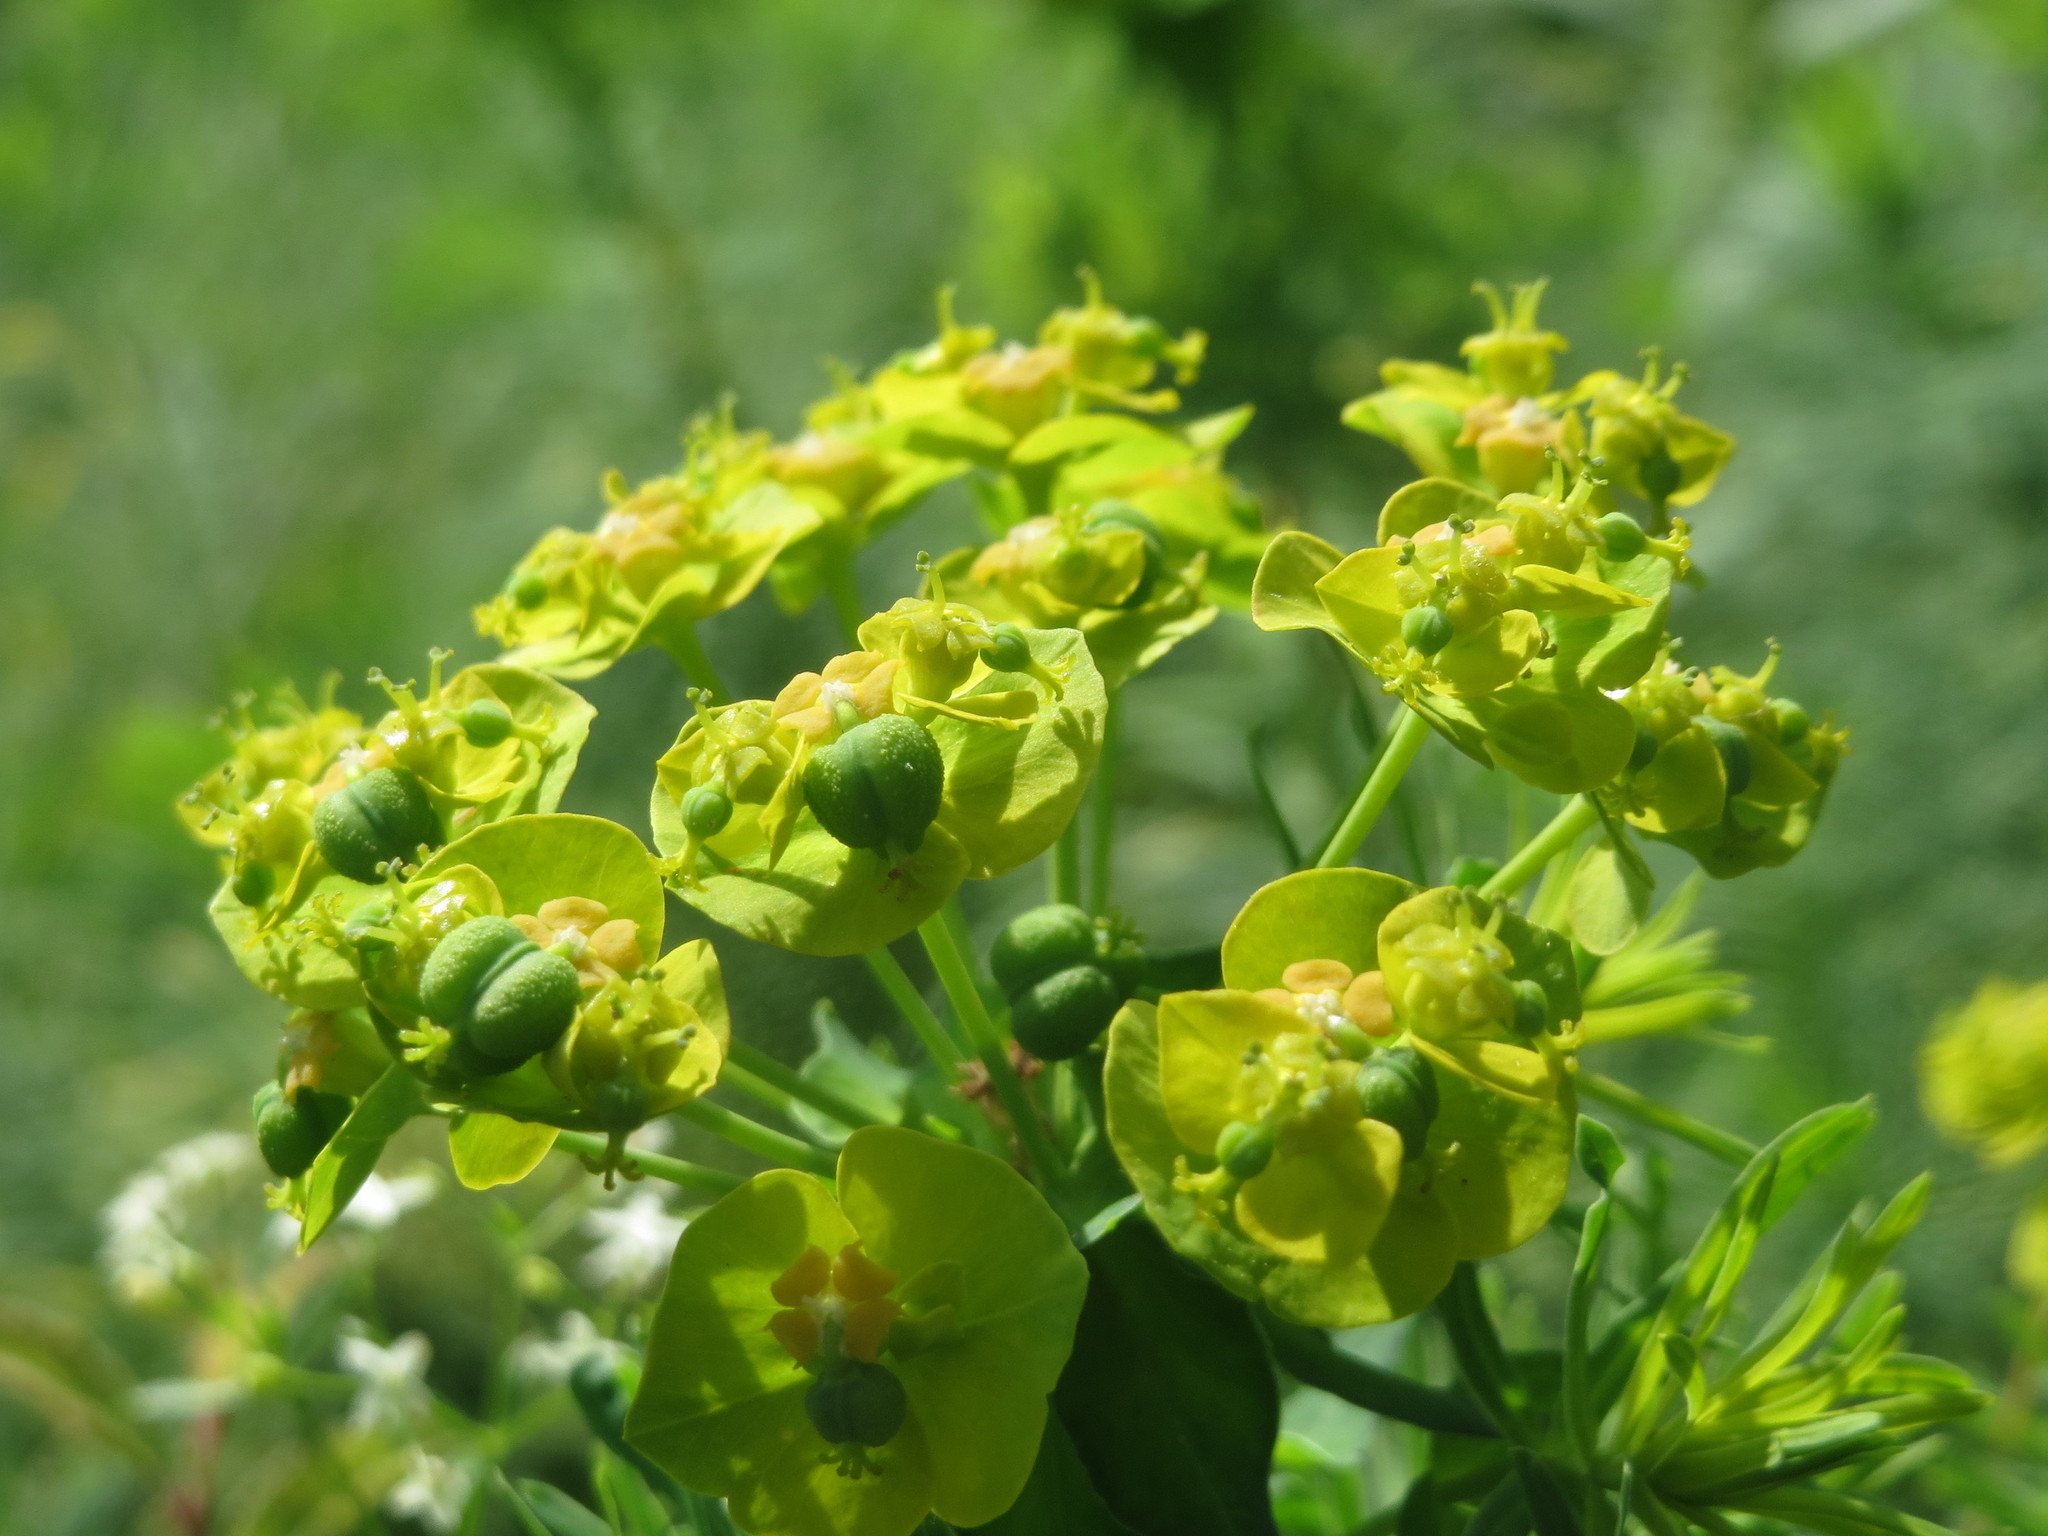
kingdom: Plantae
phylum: Tracheophyta
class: Magnoliopsida
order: Malpighiales
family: Euphorbiaceae
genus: Euphorbia
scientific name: Euphorbia cyparissias
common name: Cypress spurge
